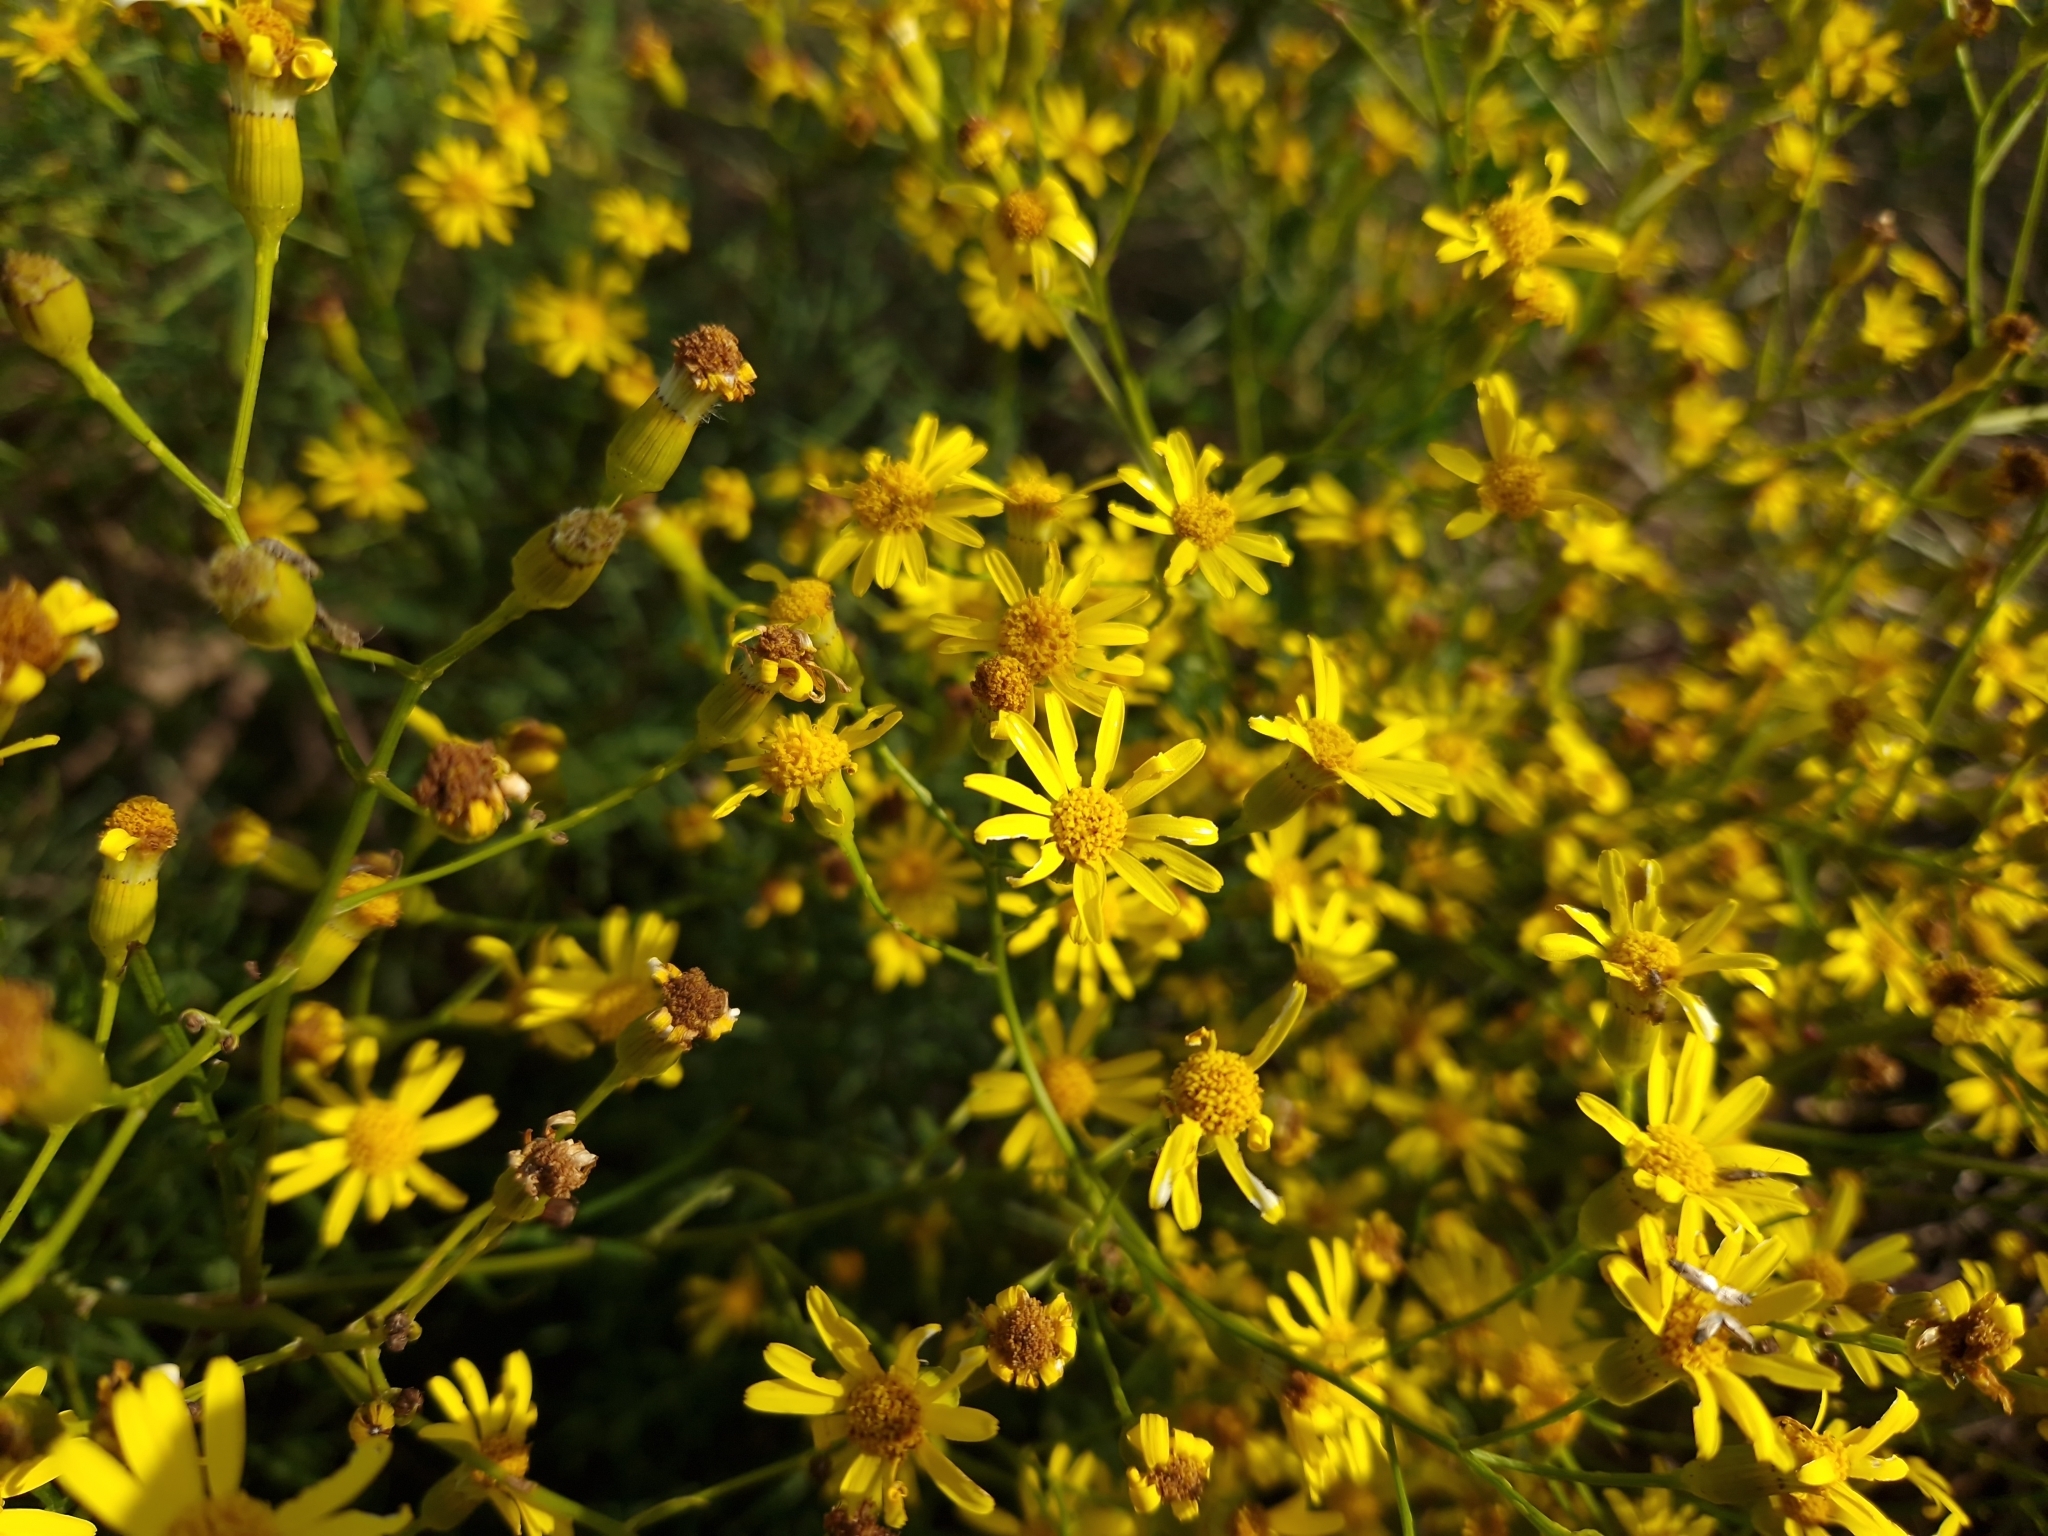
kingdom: Plantae
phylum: Tracheophyta
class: Magnoliopsida
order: Asterales
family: Asteraceae
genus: Senecio
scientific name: Senecio brasiliensis
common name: Hemp-leaf ragwort
